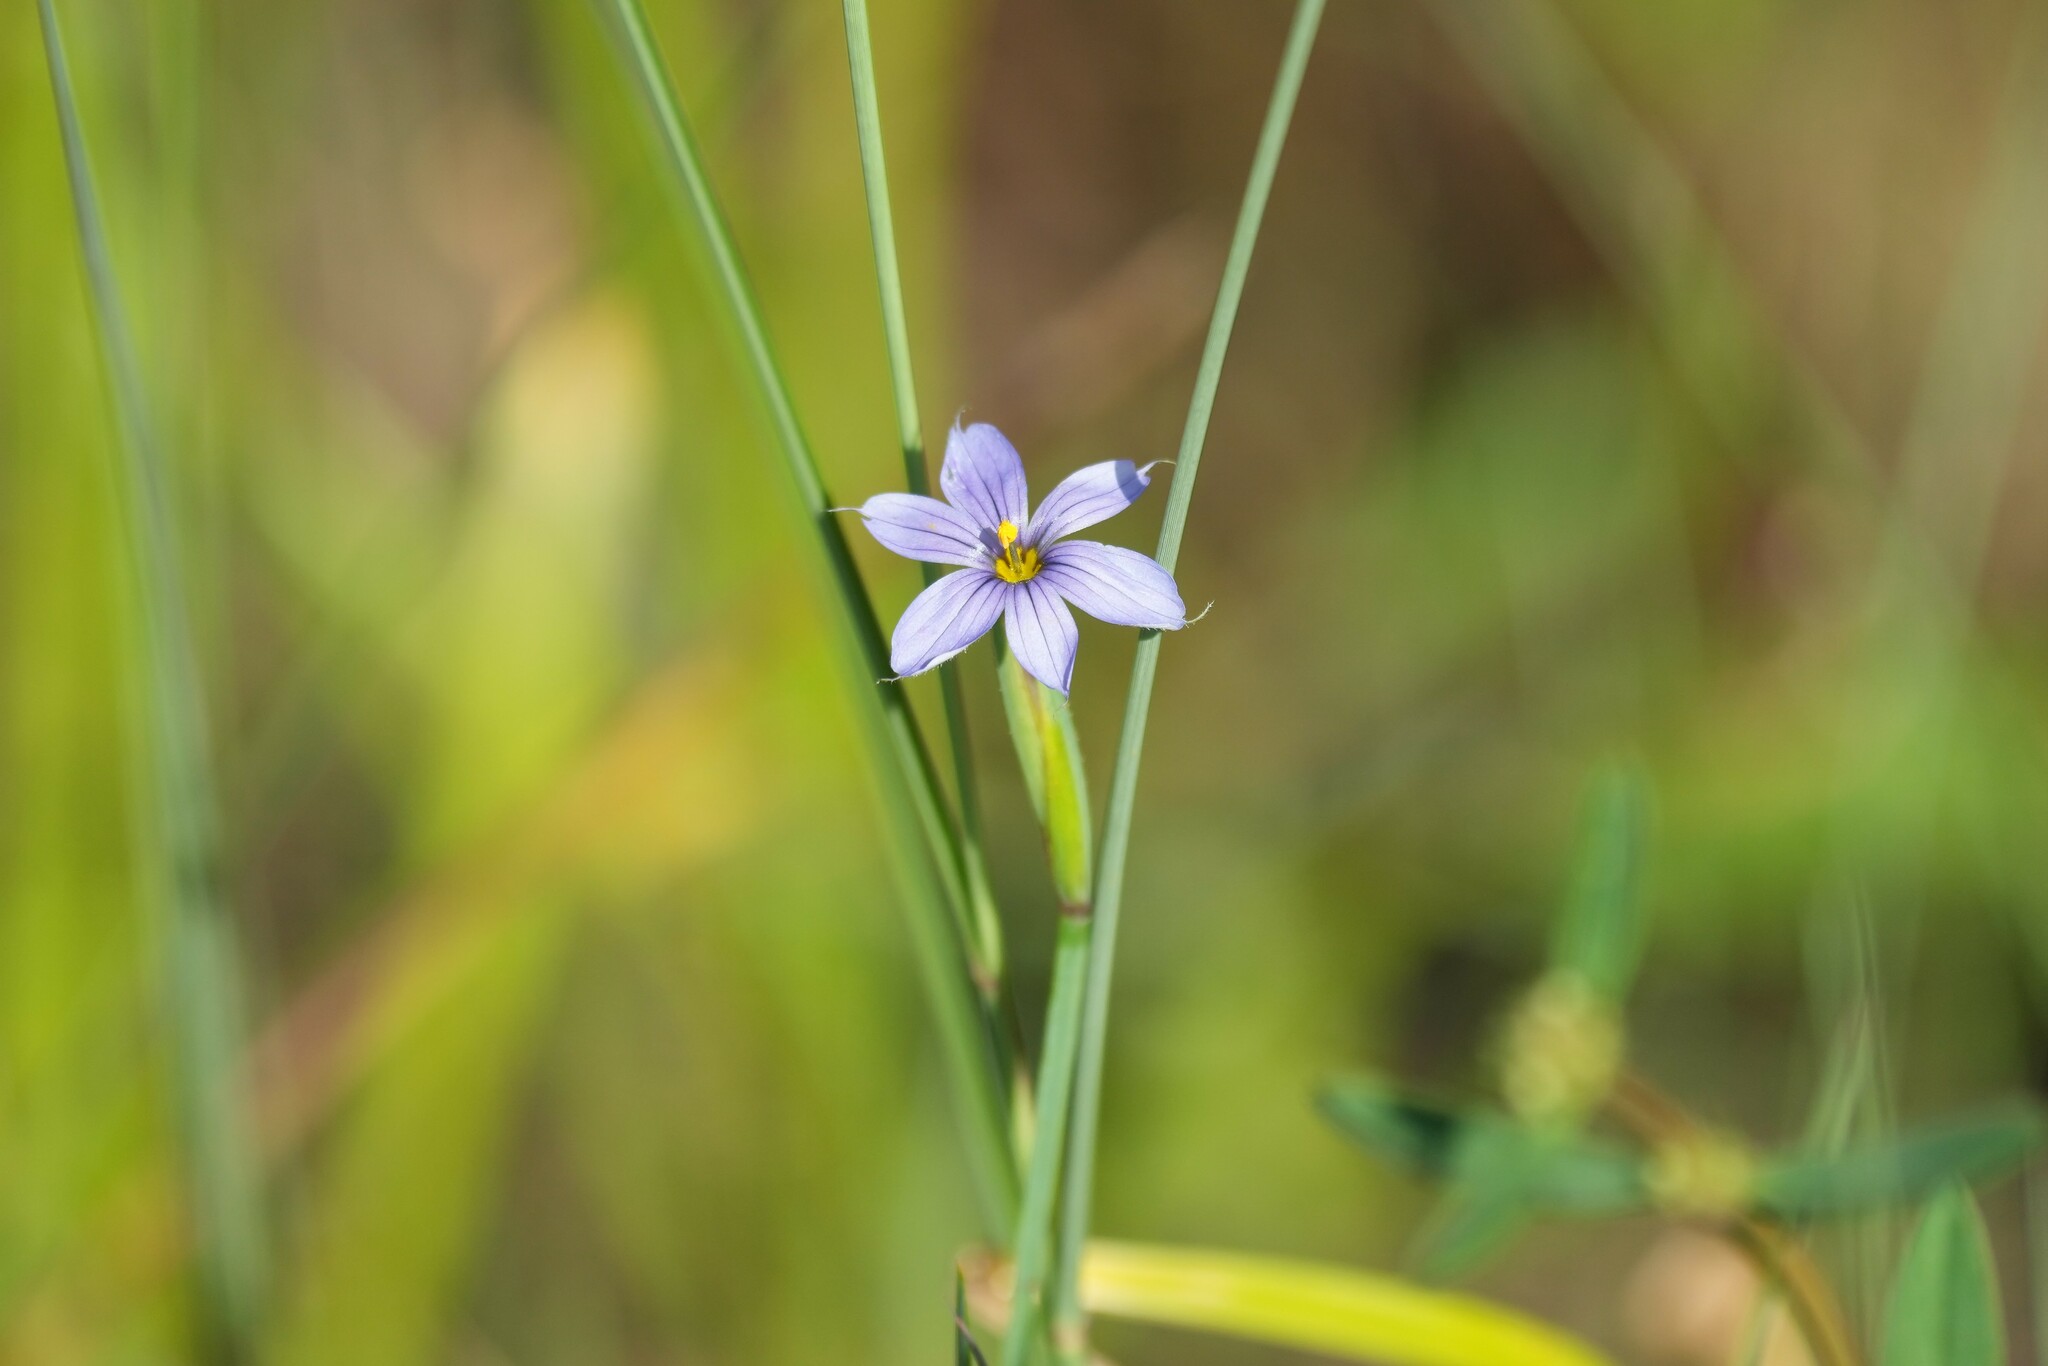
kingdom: Plantae
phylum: Tracheophyta
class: Liliopsida
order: Asparagales
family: Iridaceae
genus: Sisyrinchium
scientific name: Sisyrinchium angustifolium
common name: Narrow-leaf blue-eyed-grass
